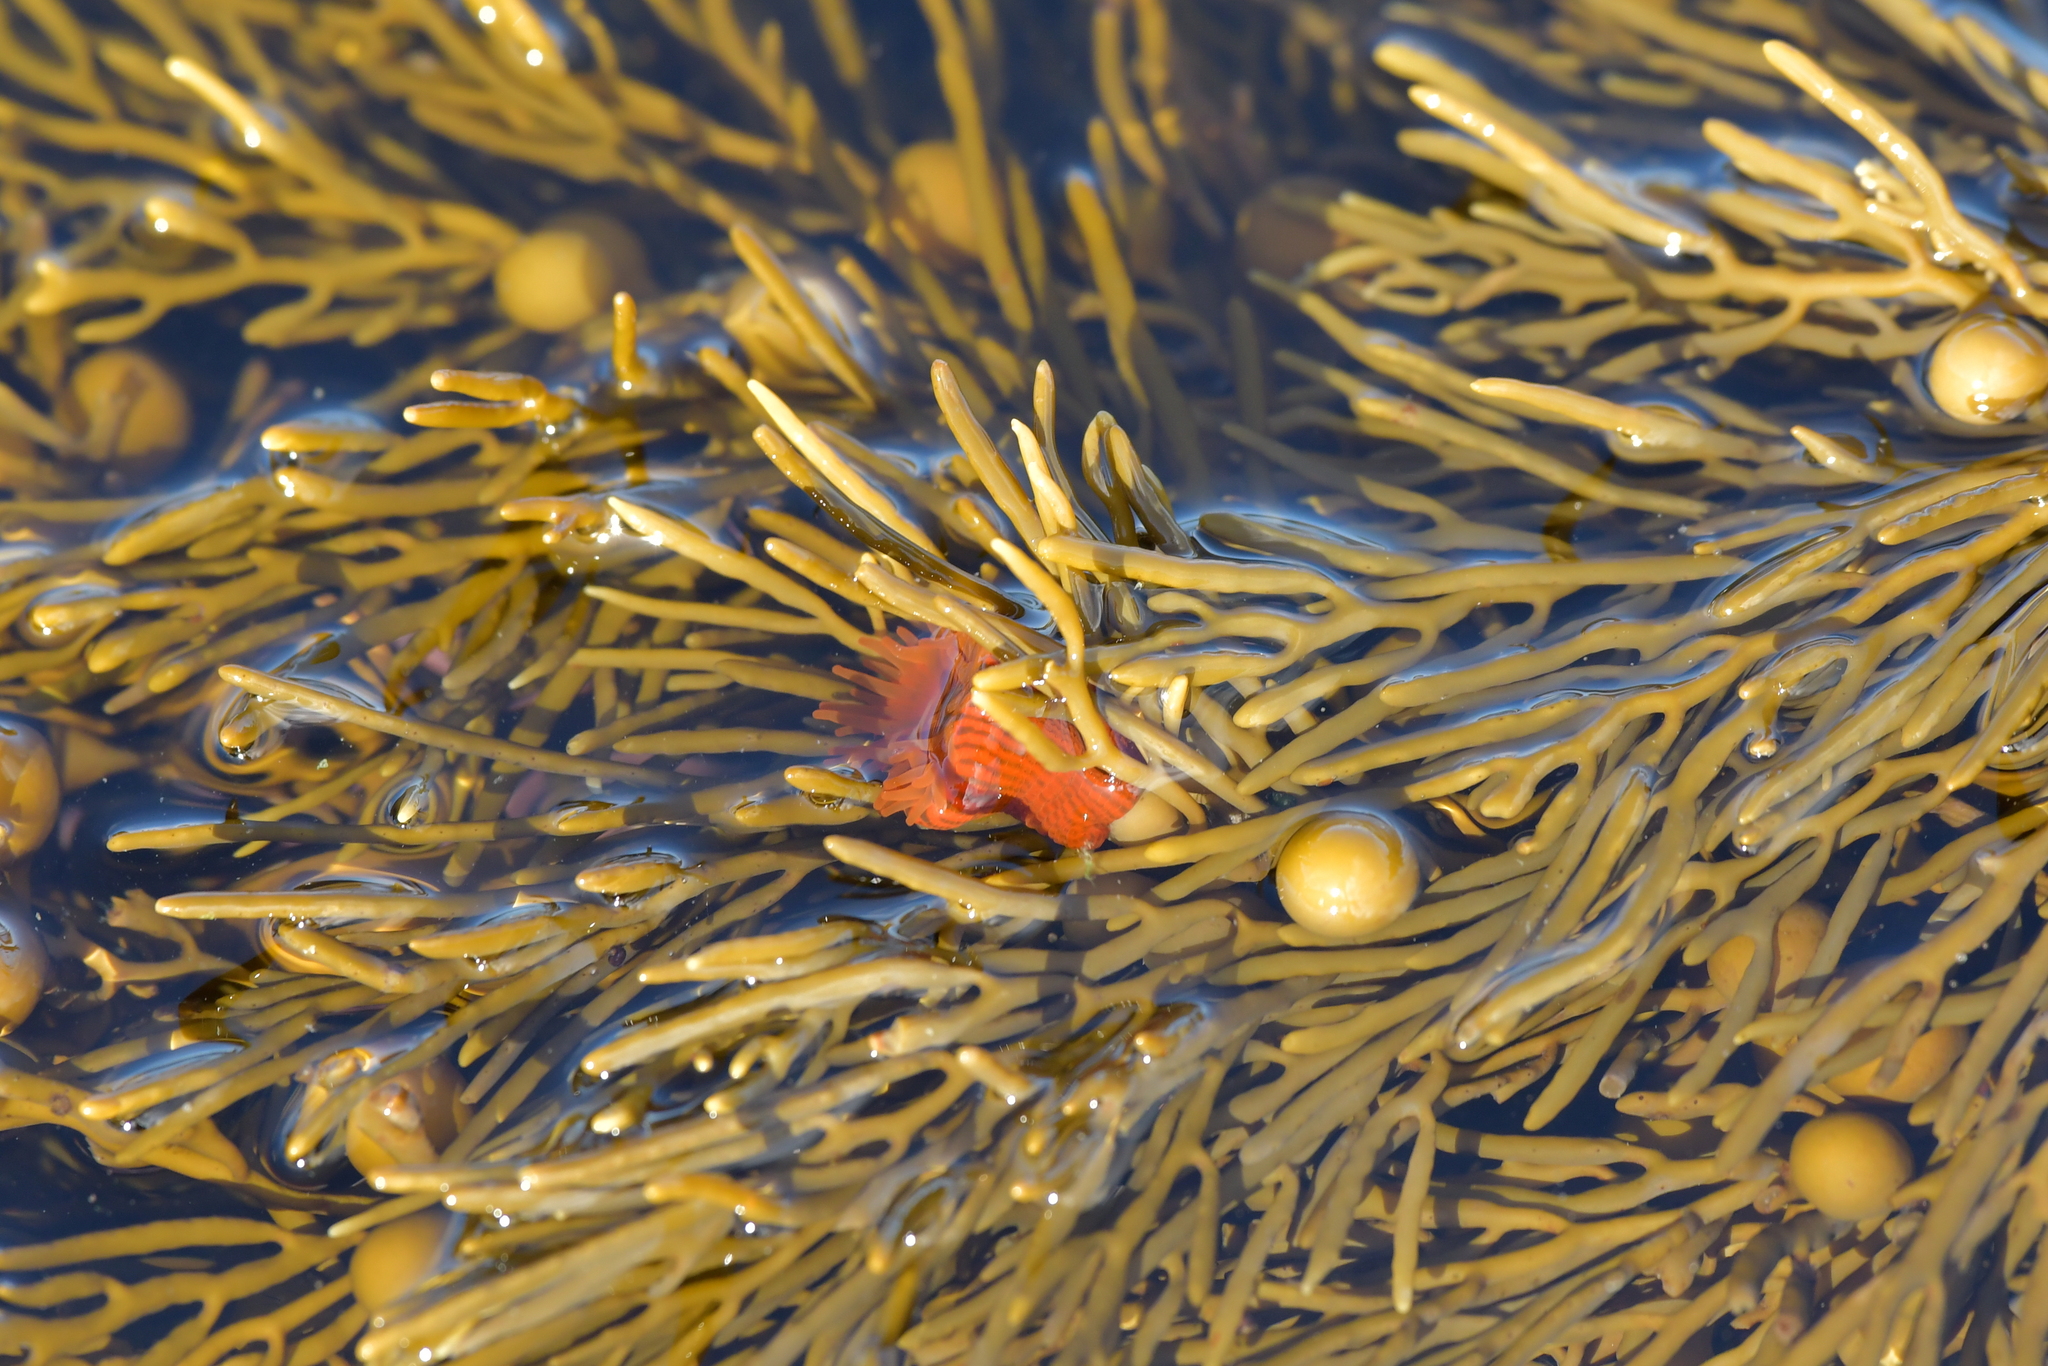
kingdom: Animalia
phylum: Cnidaria
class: Anthozoa
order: Actiniaria
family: Actiniidae
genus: Epiactis
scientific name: Epiactis
